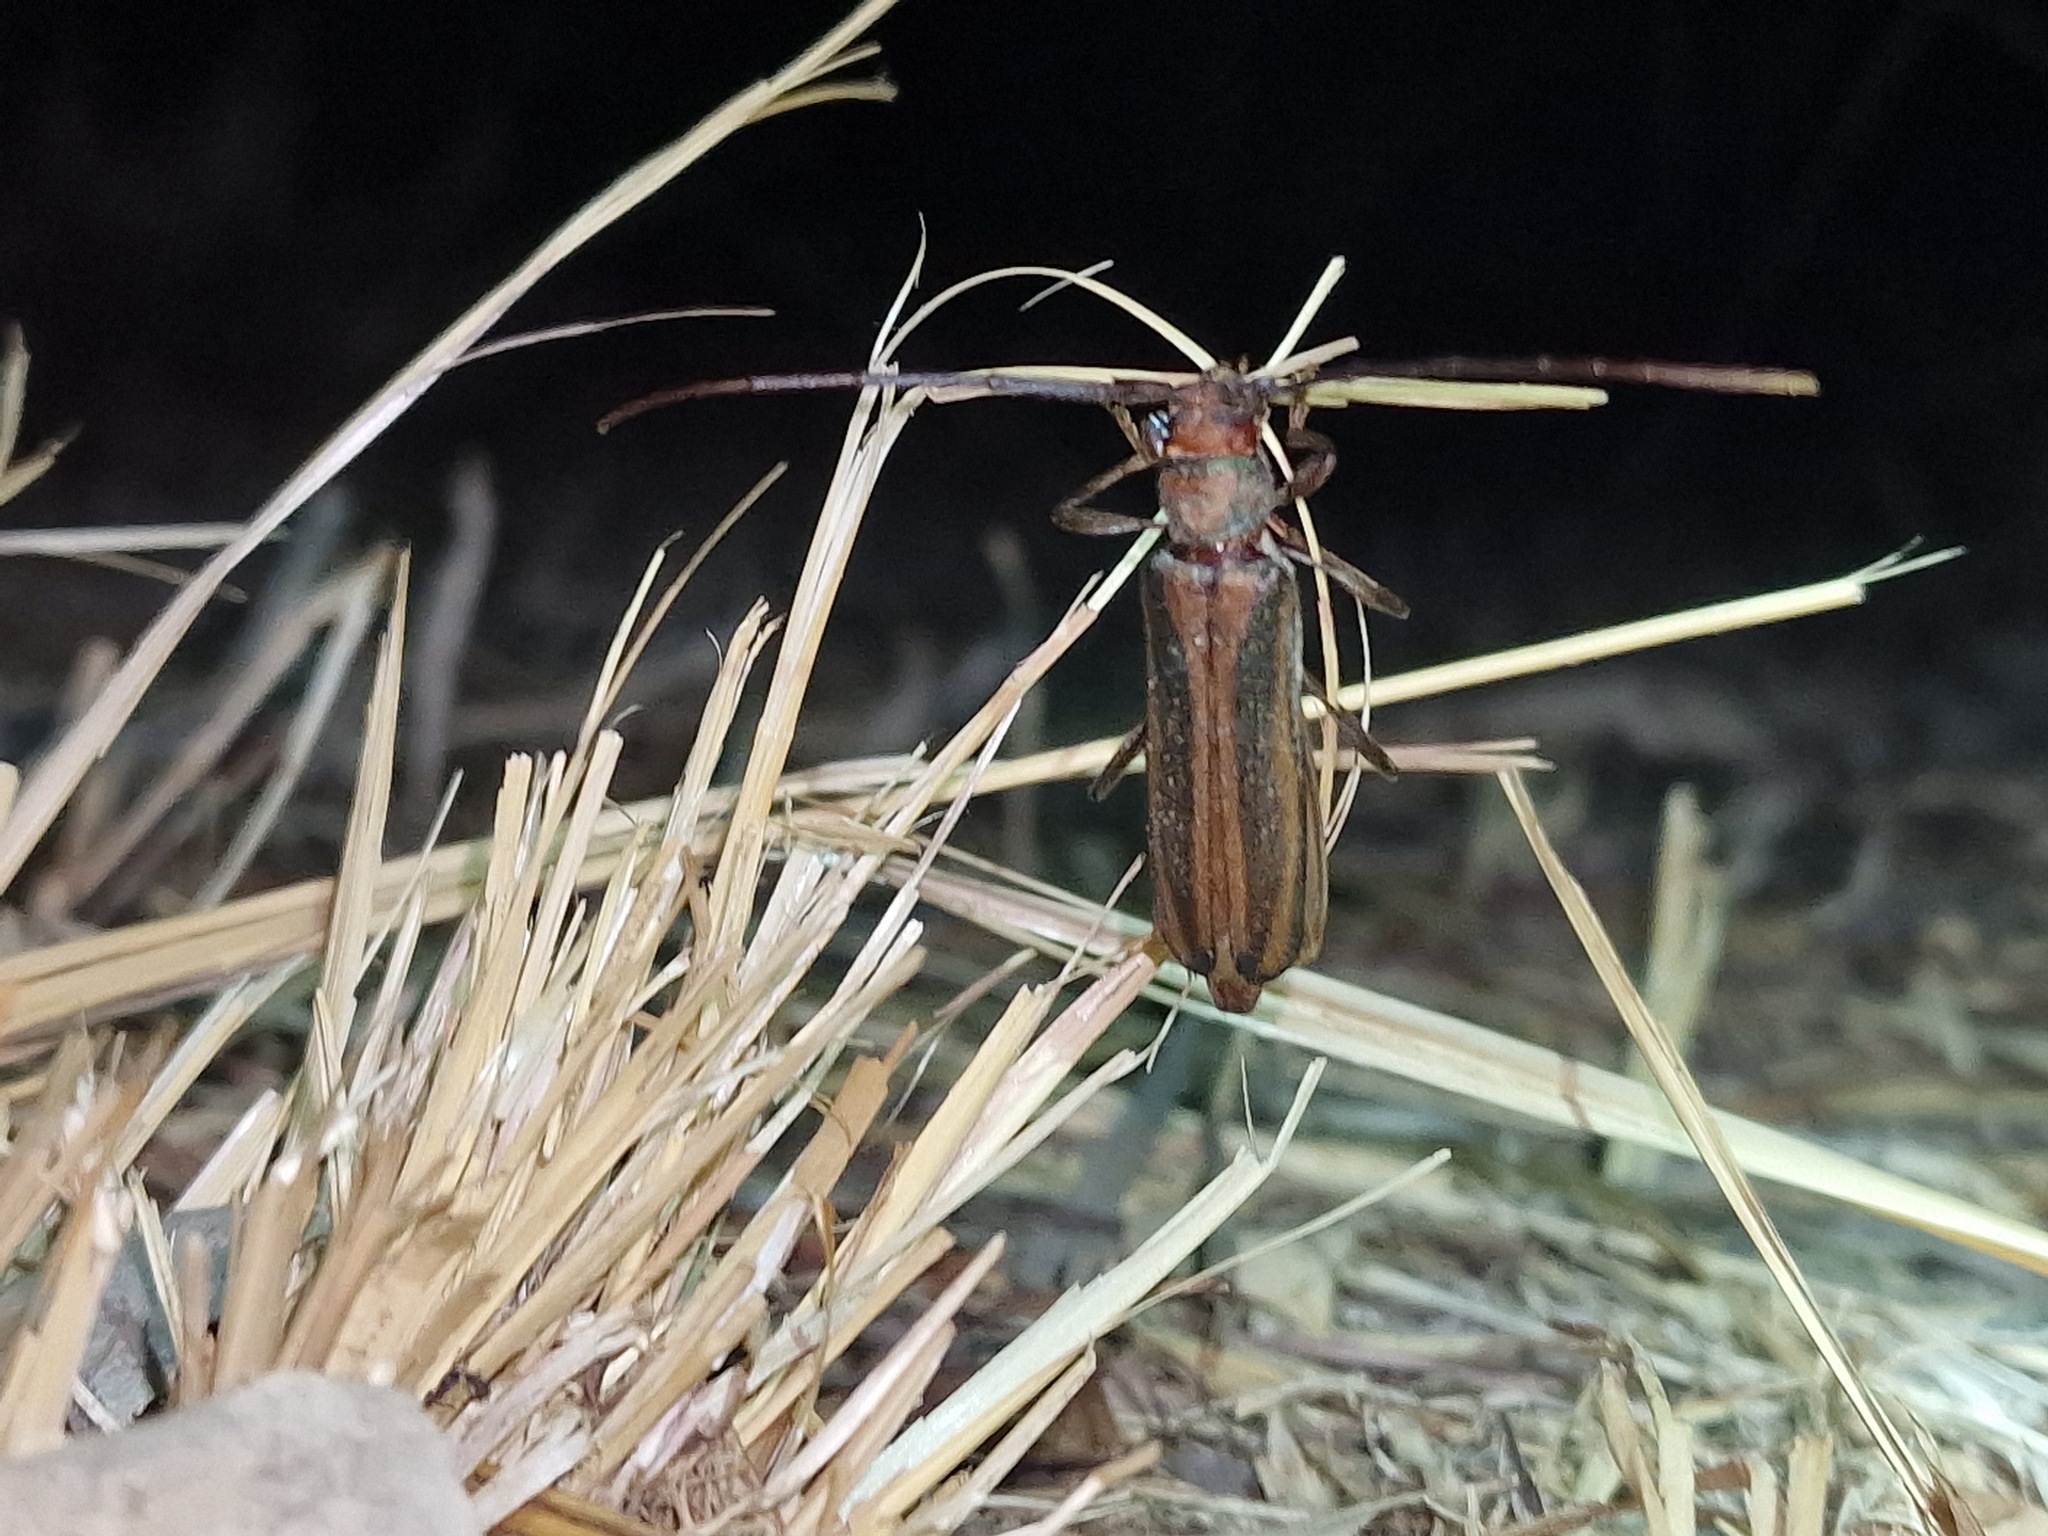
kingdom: Animalia
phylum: Arthropoda
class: Insecta
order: Coleoptera
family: Cerambycidae
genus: Xystrocera
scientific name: Xystrocera dispar
